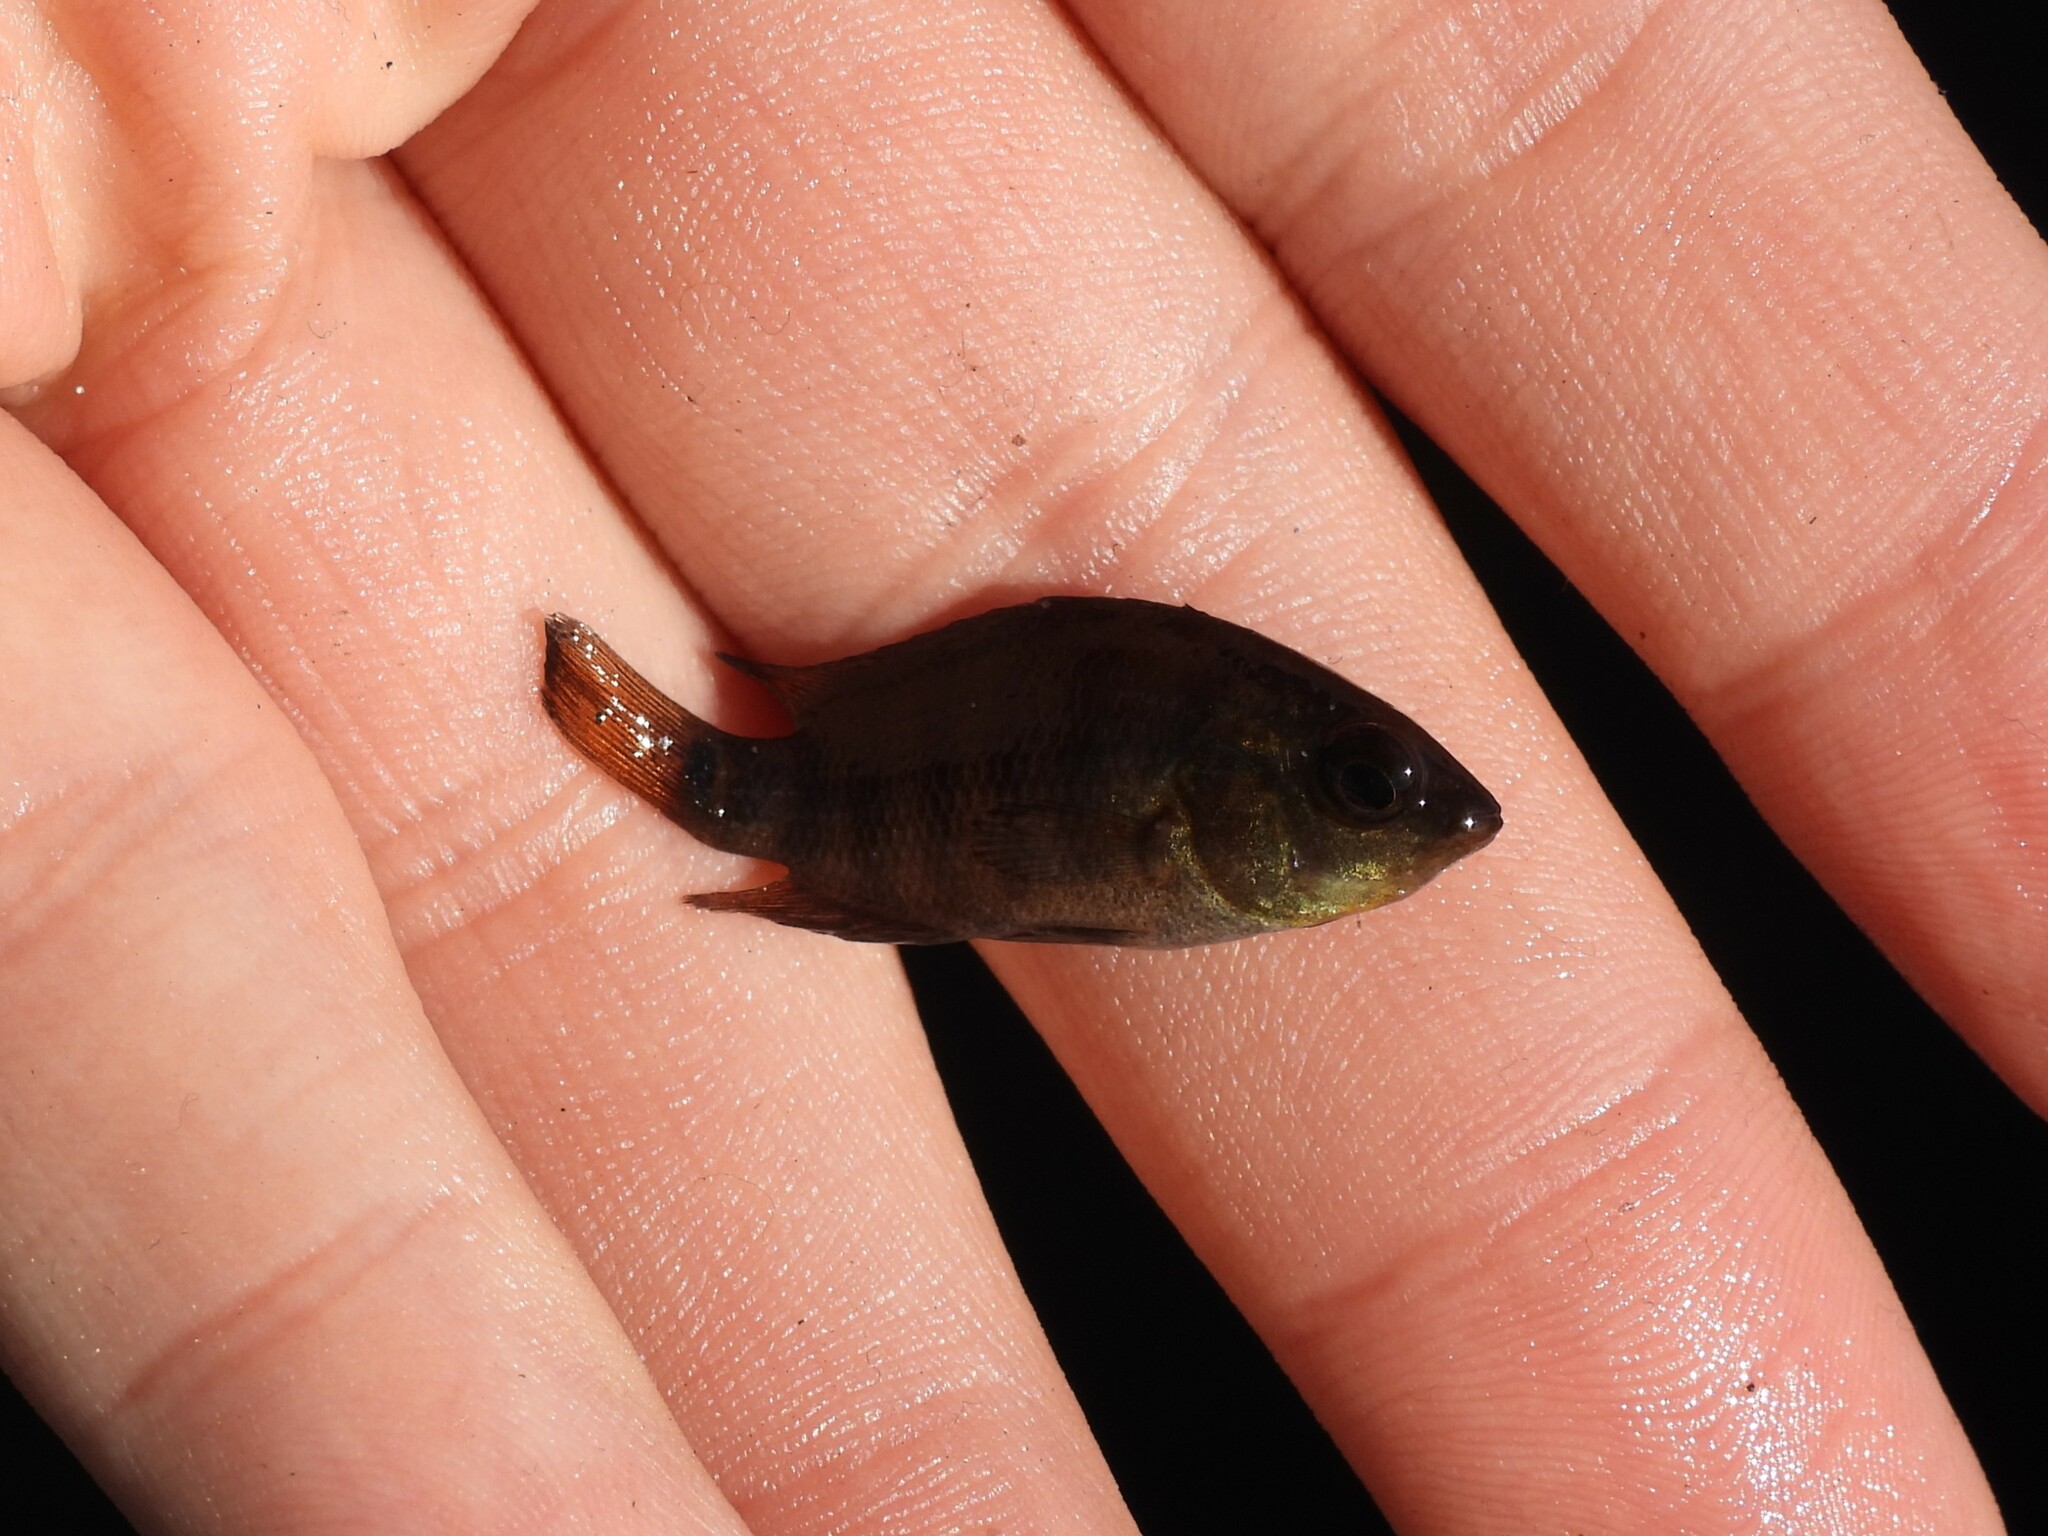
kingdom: Animalia
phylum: Chordata
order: Perciformes
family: Cichlidae
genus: Mayaheros
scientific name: Mayaheros urophthalmus
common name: Mayan cichlid
